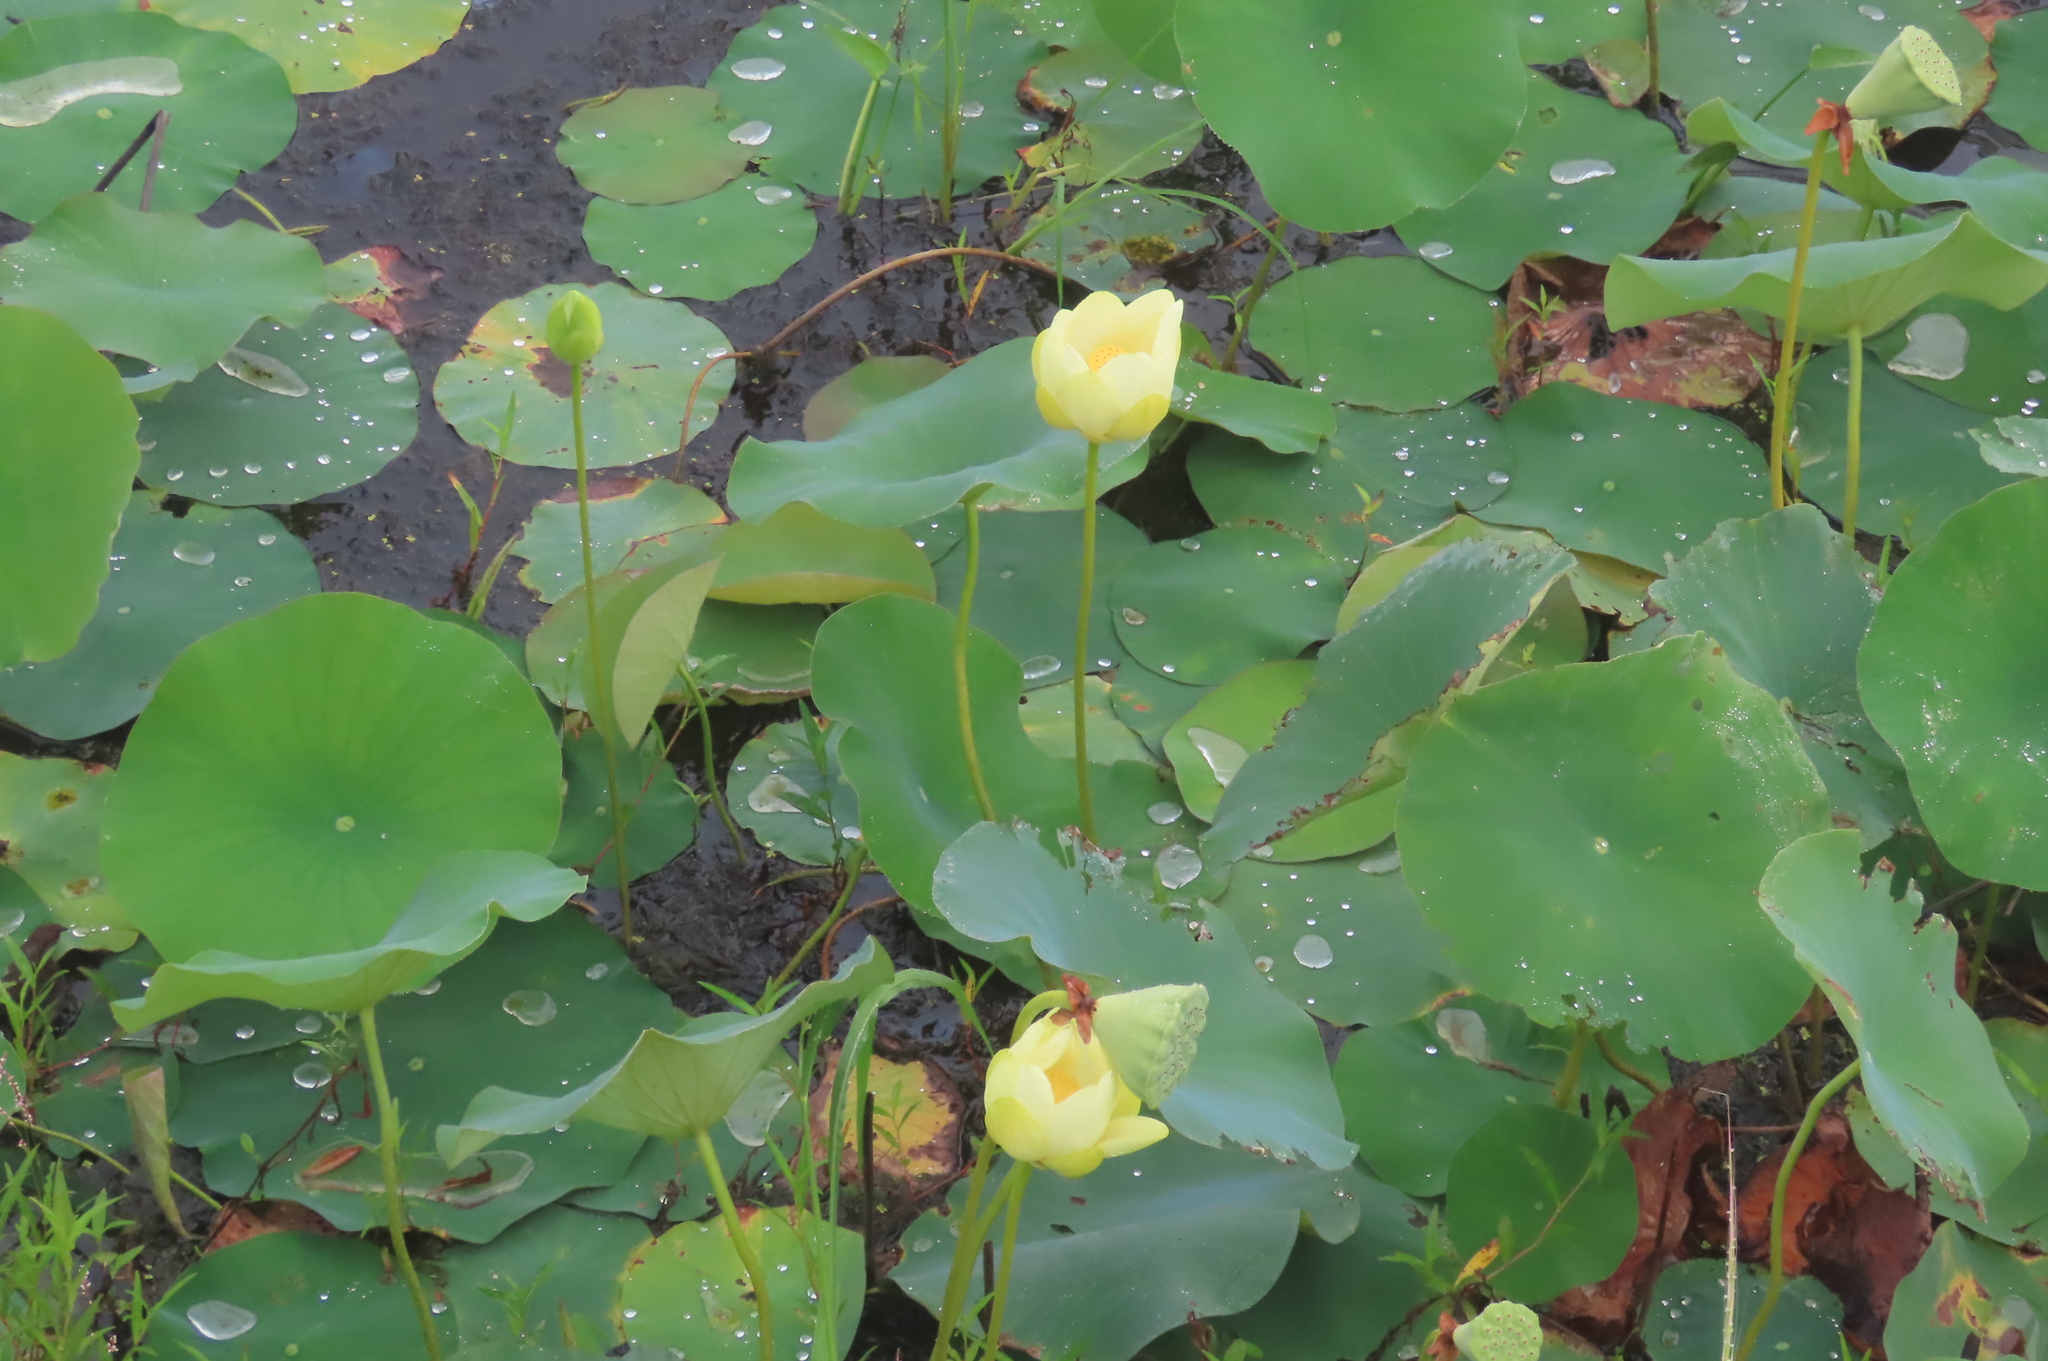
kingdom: Plantae
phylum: Tracheophyta
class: Magnoliopsida
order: Proteales
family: Nelumbonaceae
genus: Nelumbo
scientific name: Nelumbo lutea
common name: American lotus
